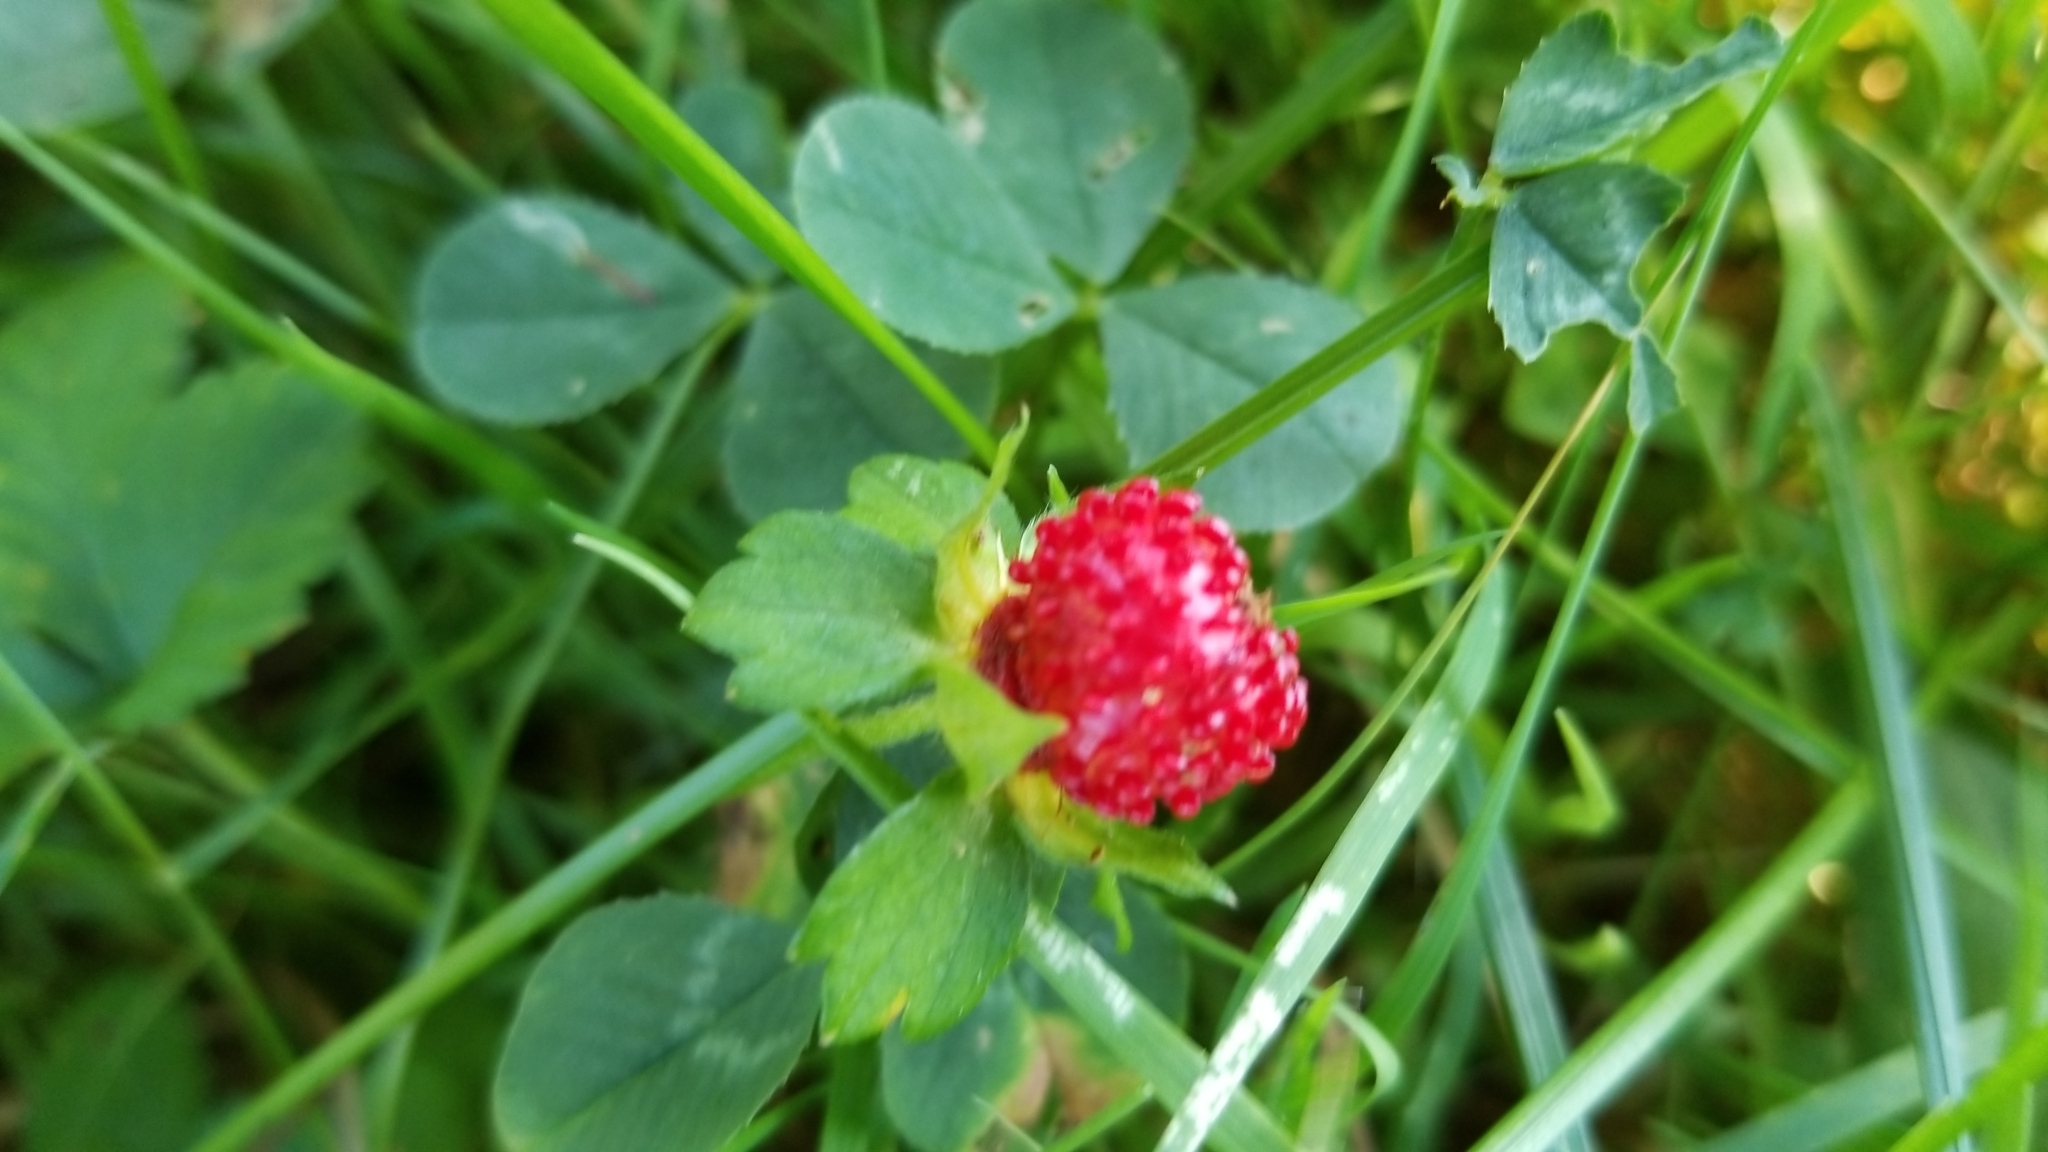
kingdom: Plantae
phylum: Tracheophyta
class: Magnoliopsida
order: Rosales
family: Rosaceae
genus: Potentilla
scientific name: Potentilla indica
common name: Yellow-flowered strawberry
